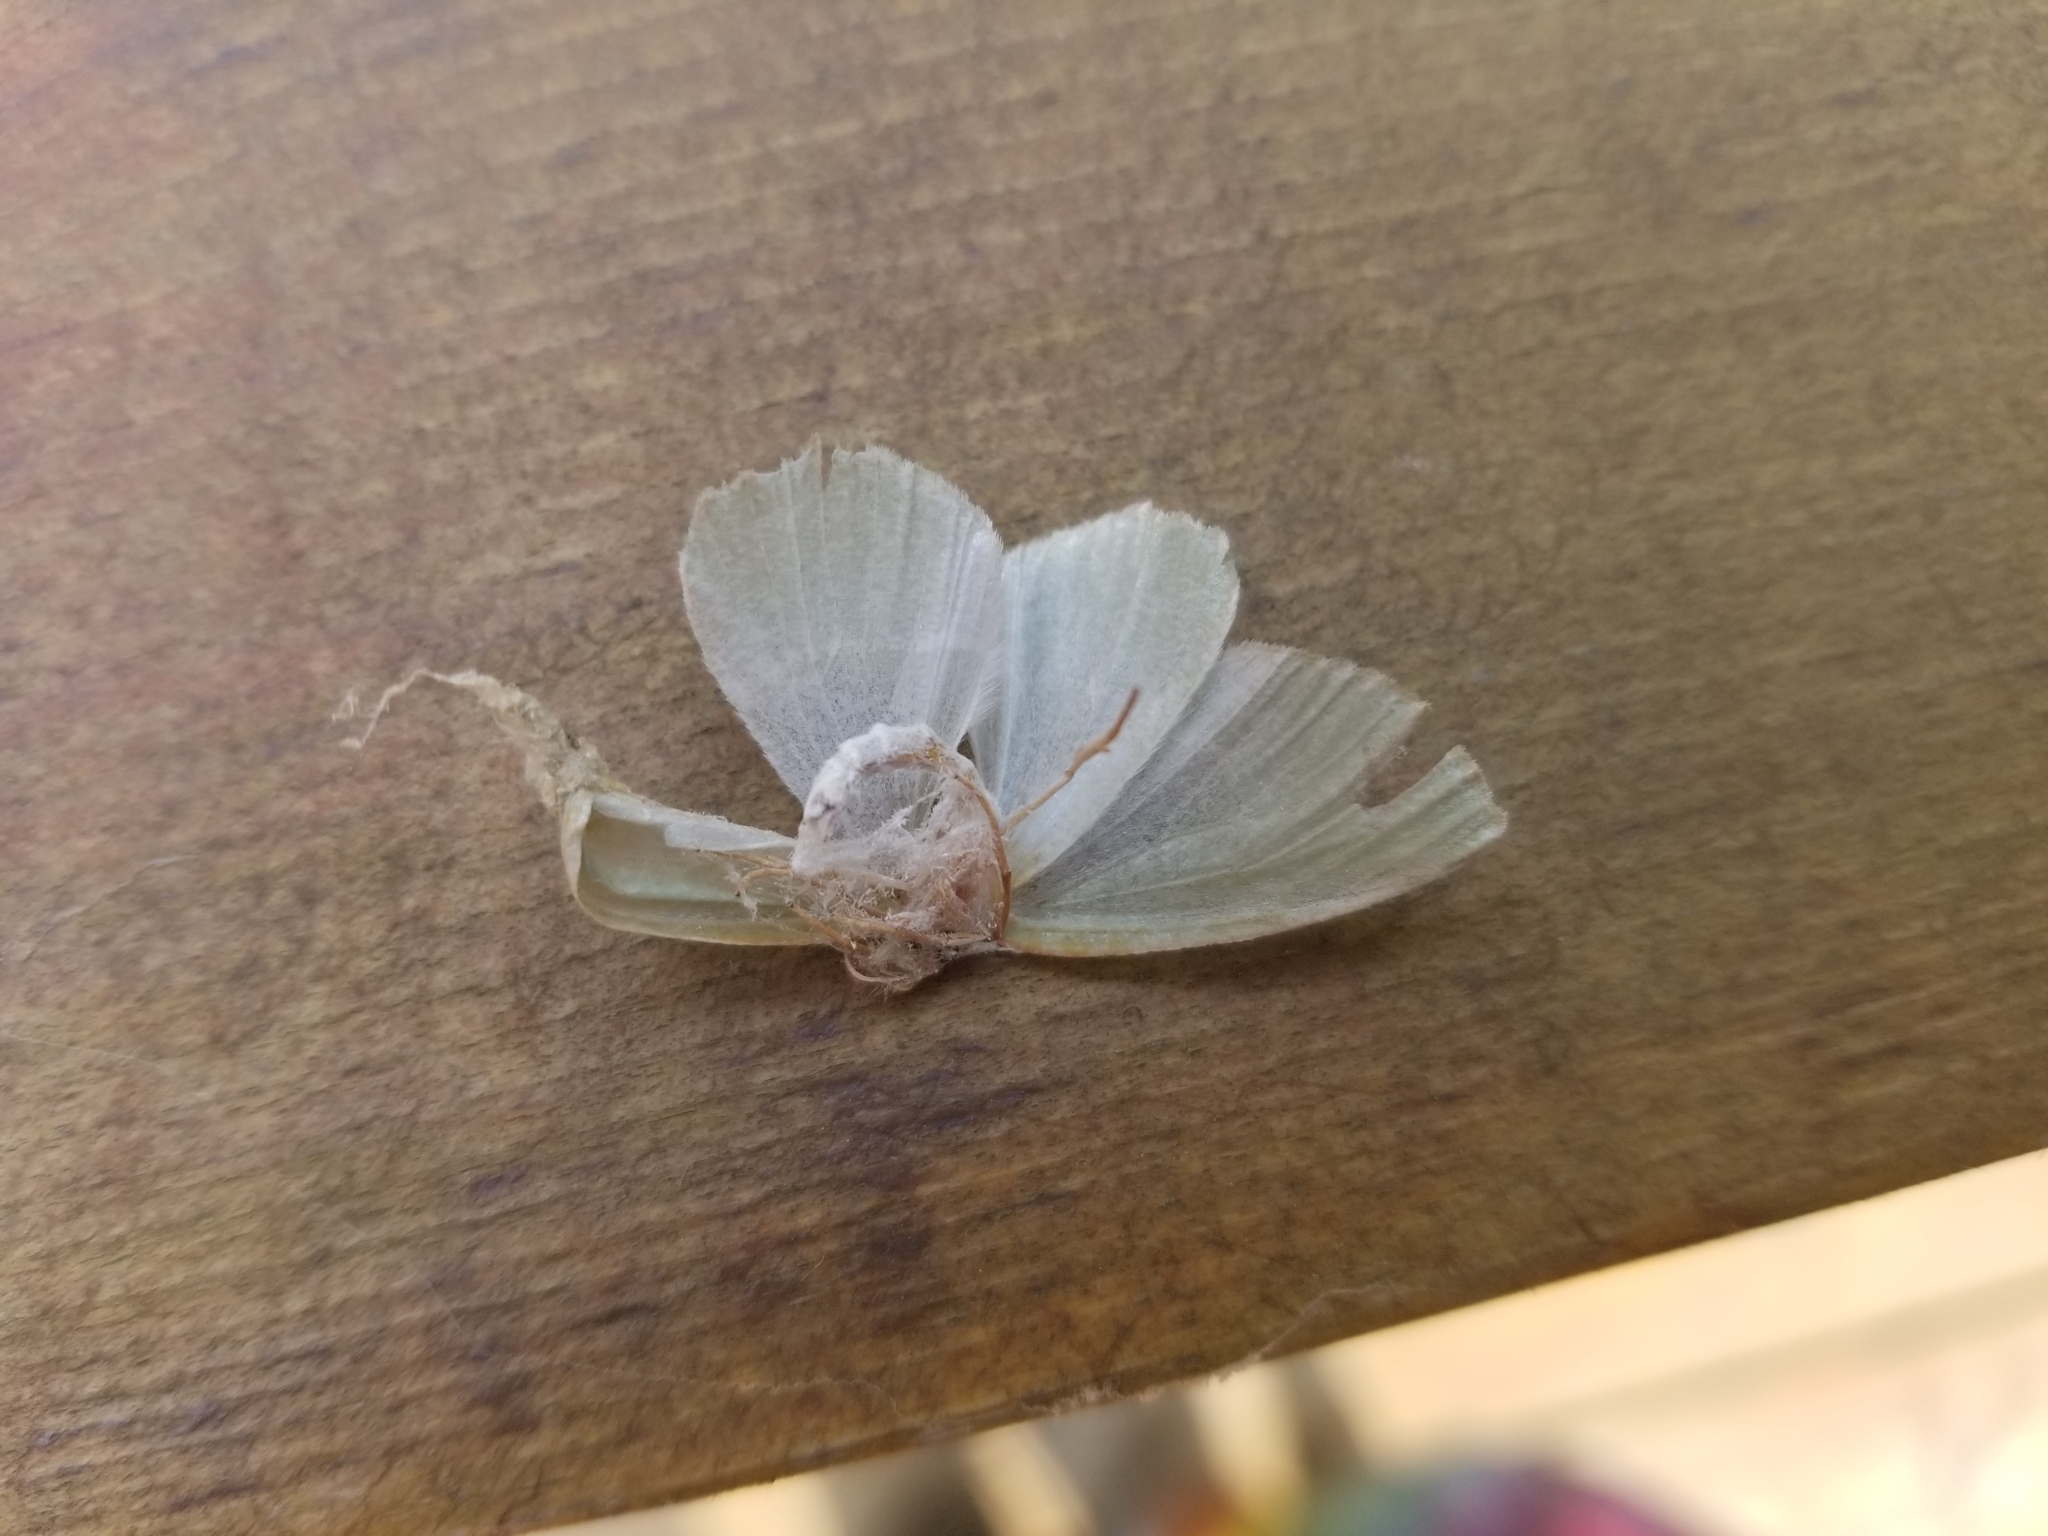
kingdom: Animalia
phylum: Arthropoda
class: Insecta
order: Lepidoptera
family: Geometridae
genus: Campaea
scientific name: Campaea perlata
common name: Fringed looper
